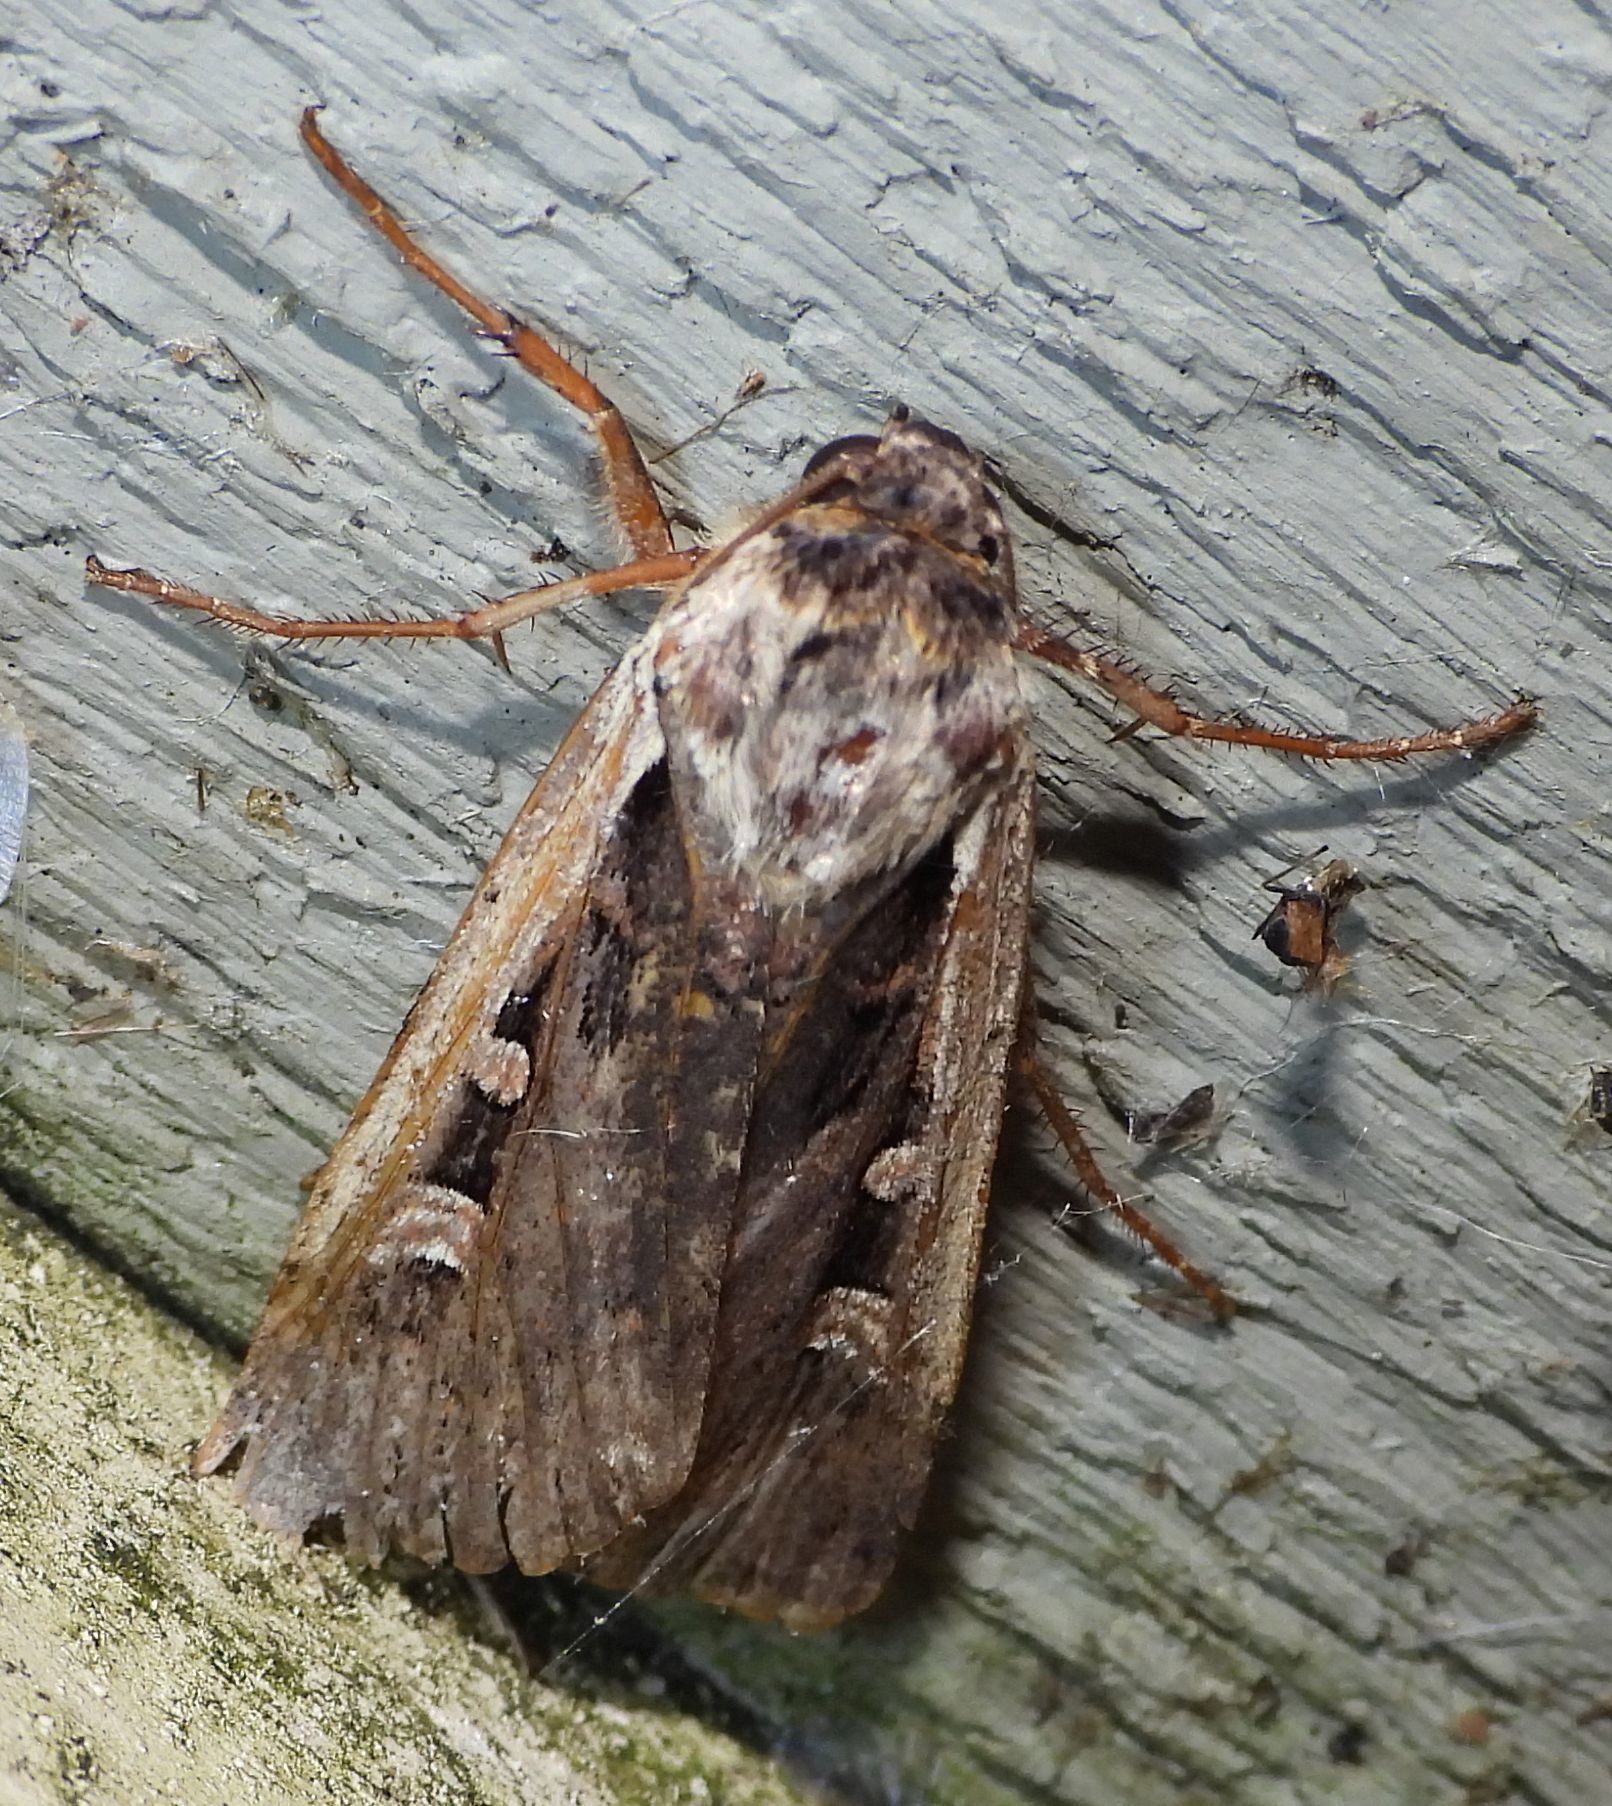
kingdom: Animalia
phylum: Arthropoda
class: Insecta
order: Lepidoptera
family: Noctuidae
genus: Striacosta
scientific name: Striacosta albicosta
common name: Western bean cutworm moth
